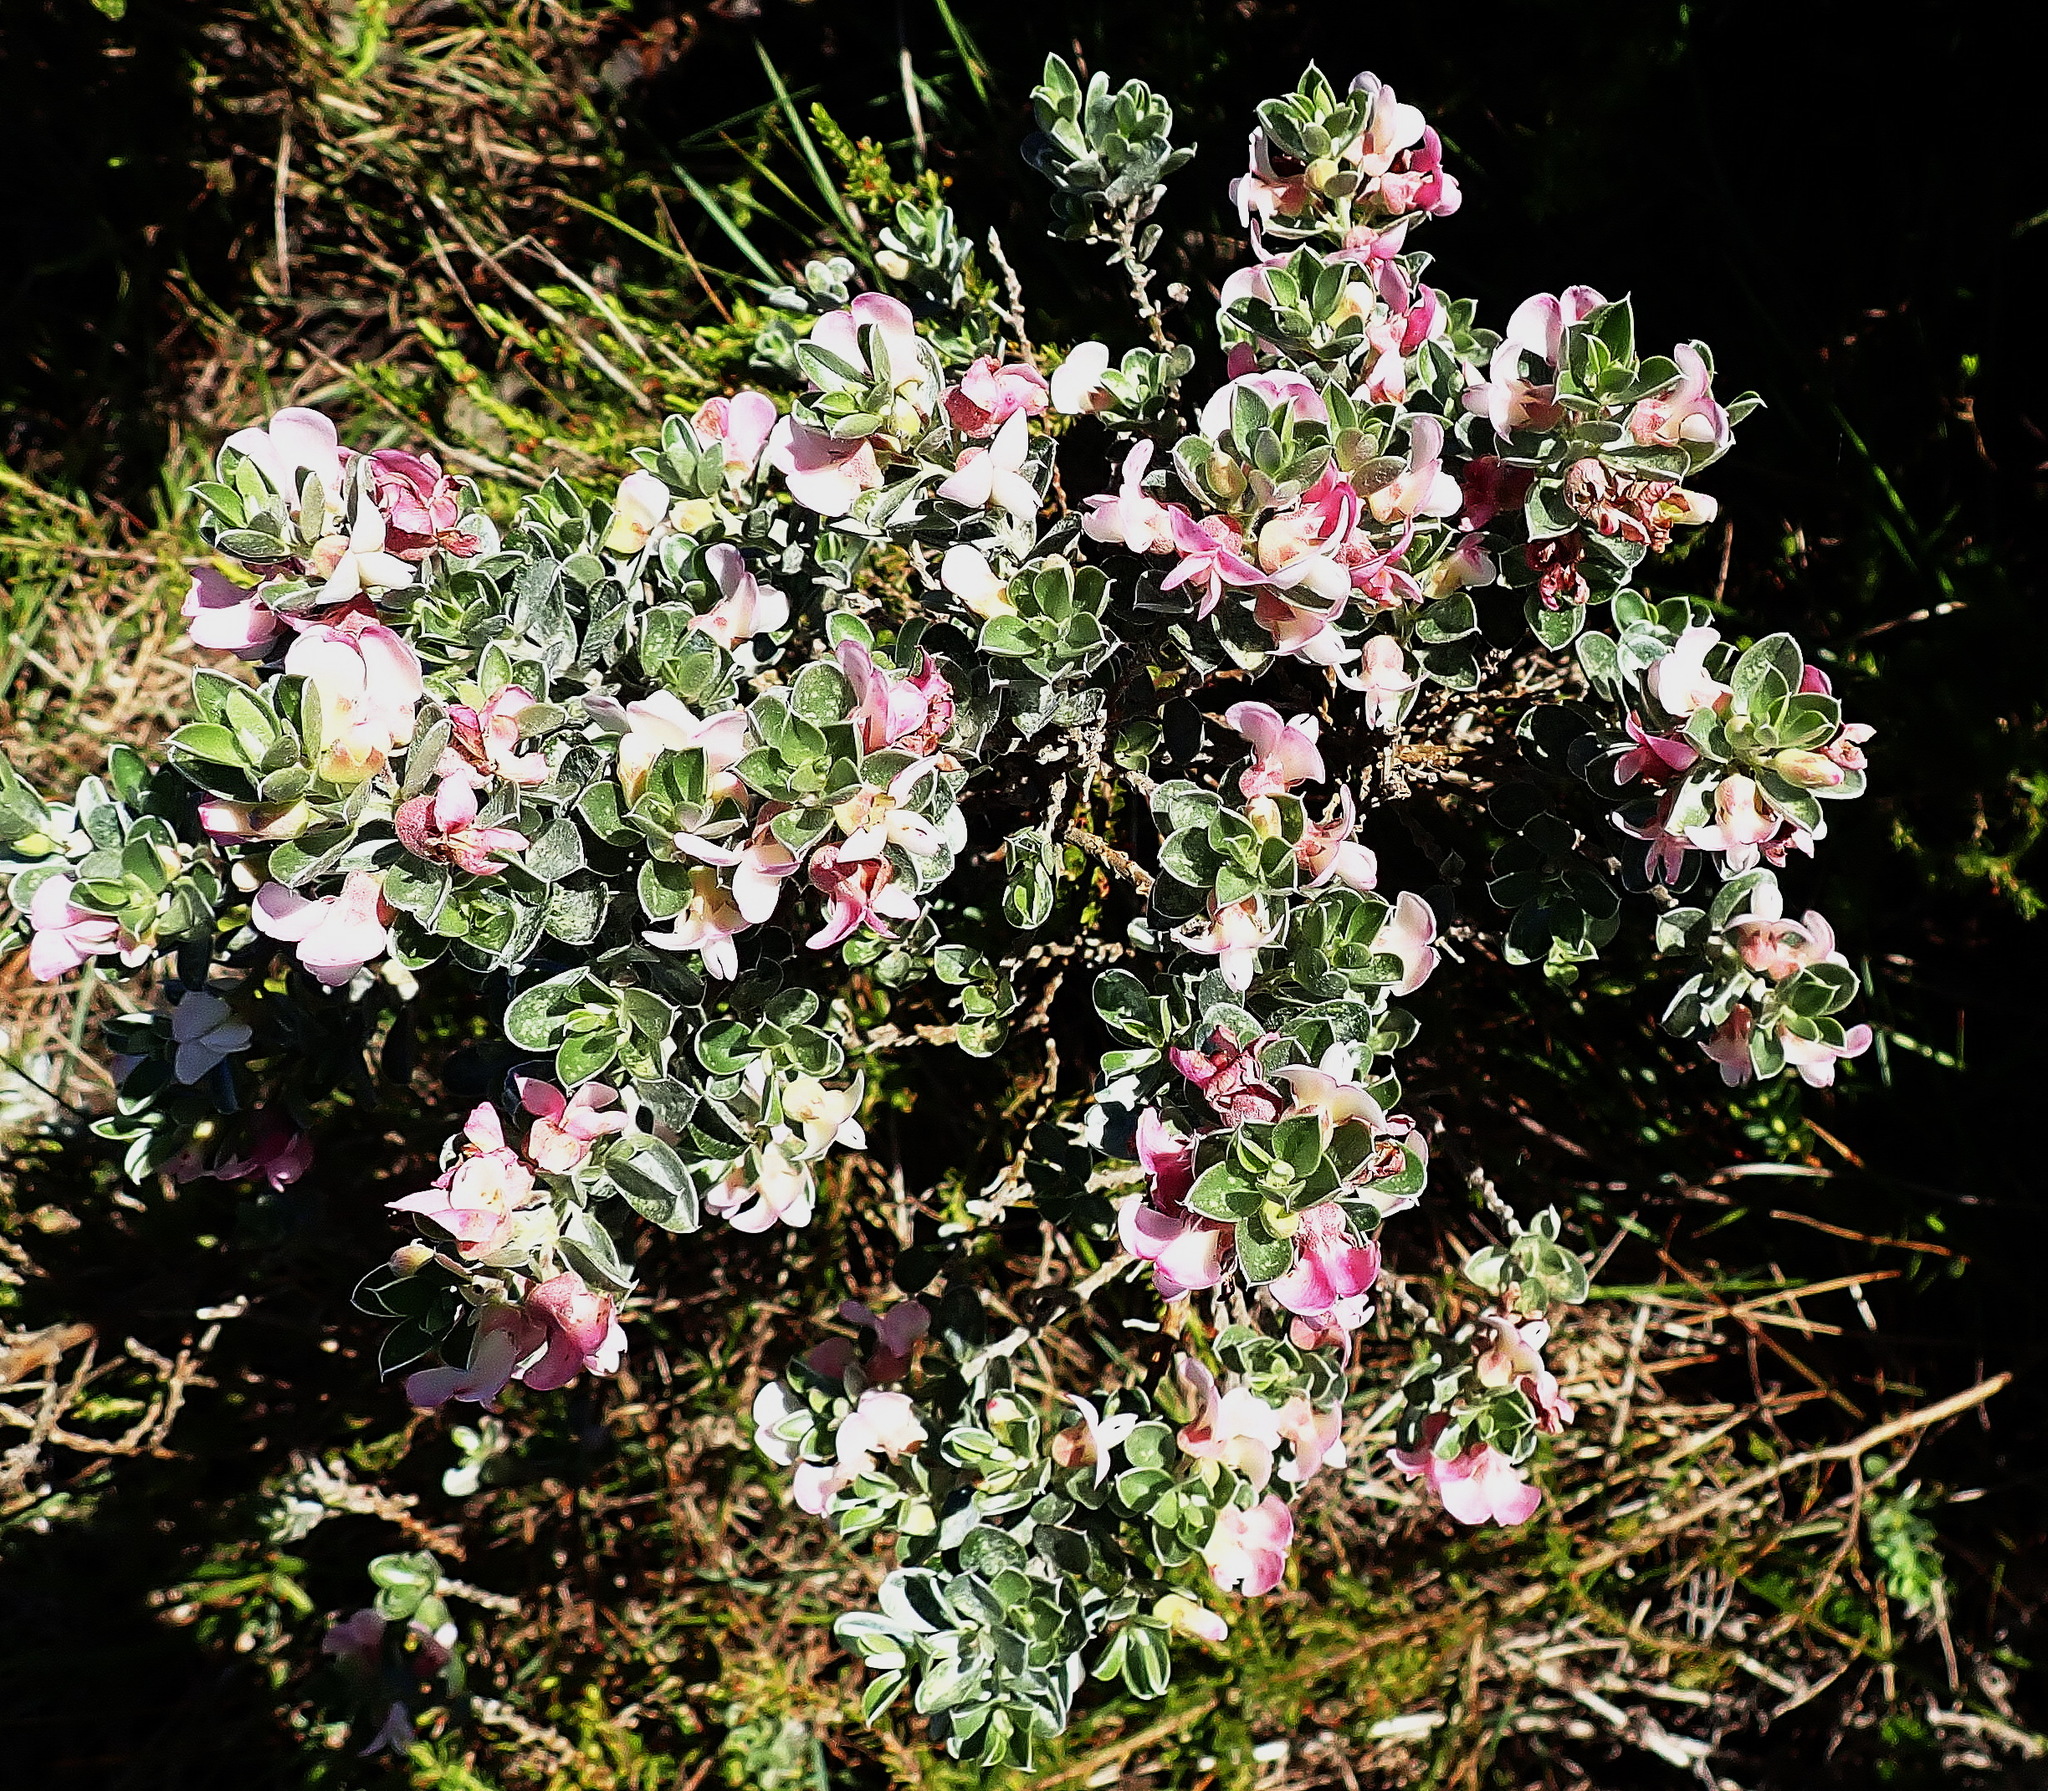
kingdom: Plantae
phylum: Tracheophyta
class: Magnoliopsida
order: Fabales
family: Fabaceae
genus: Podalyria
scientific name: Podalyria myrtillifolia
